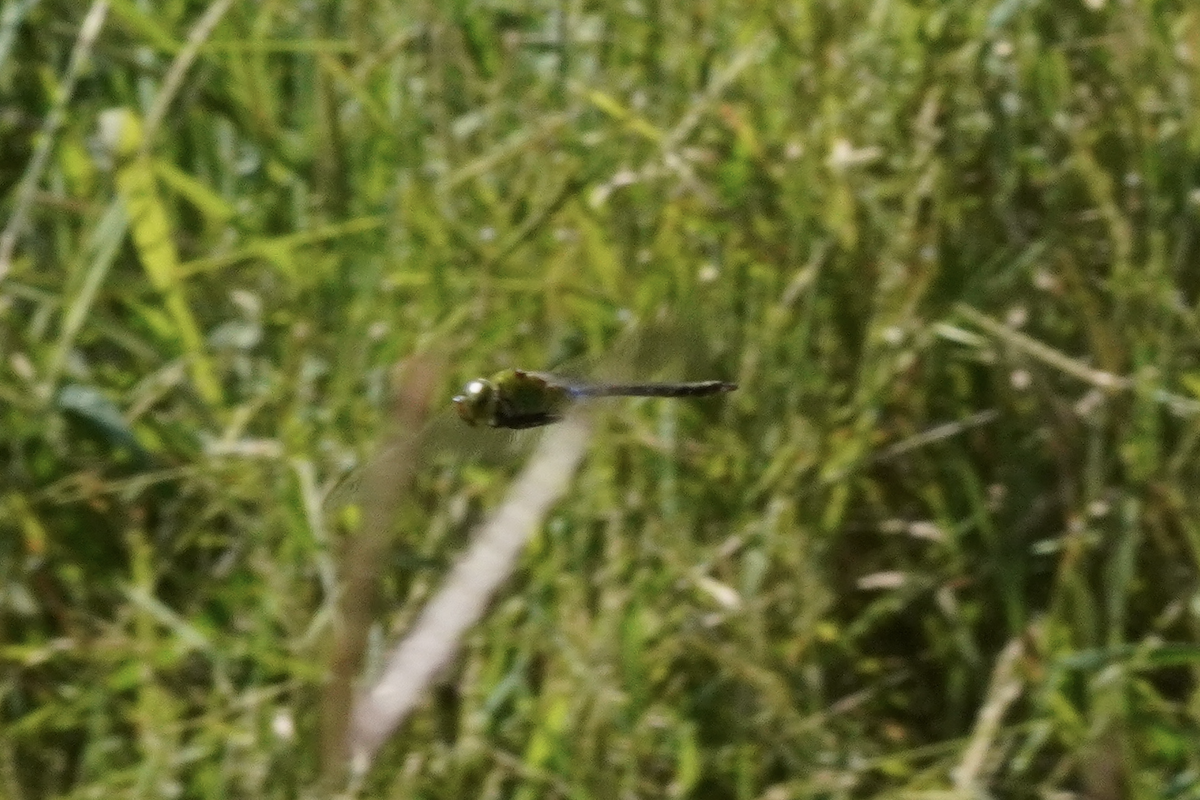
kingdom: Animalia
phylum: Arthropoda
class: Insecta
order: Odonata
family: Aeshnidae
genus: Anax
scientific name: Anax julius
